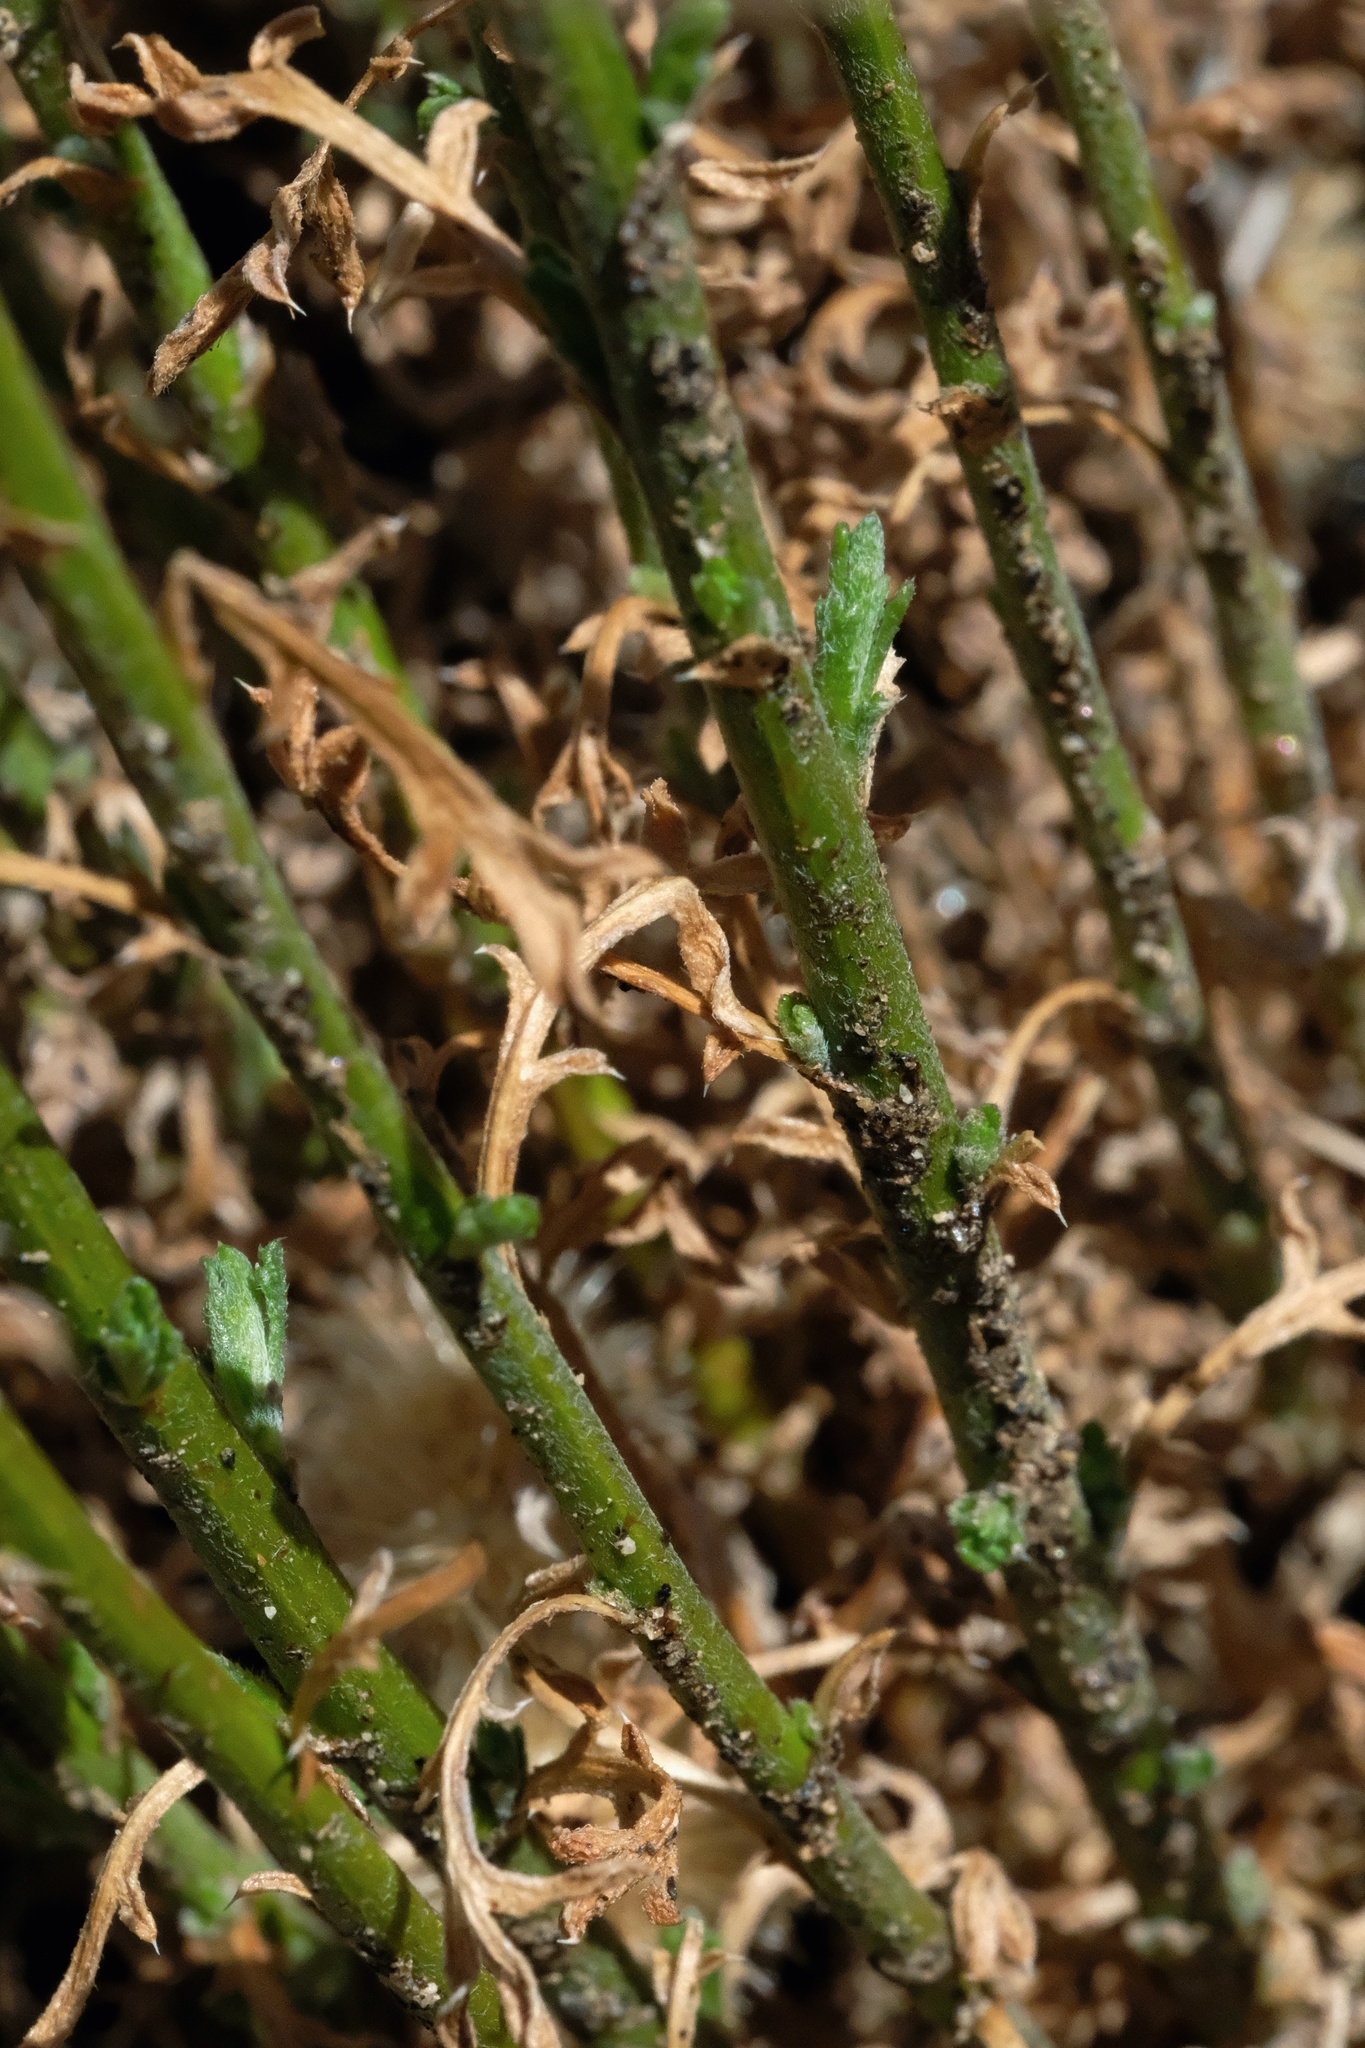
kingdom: Plantae
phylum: Tracheophyta
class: Magnoliopsida
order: Asterales
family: Asteraceae
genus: Xanthisma
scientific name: Xanthisma junceum
